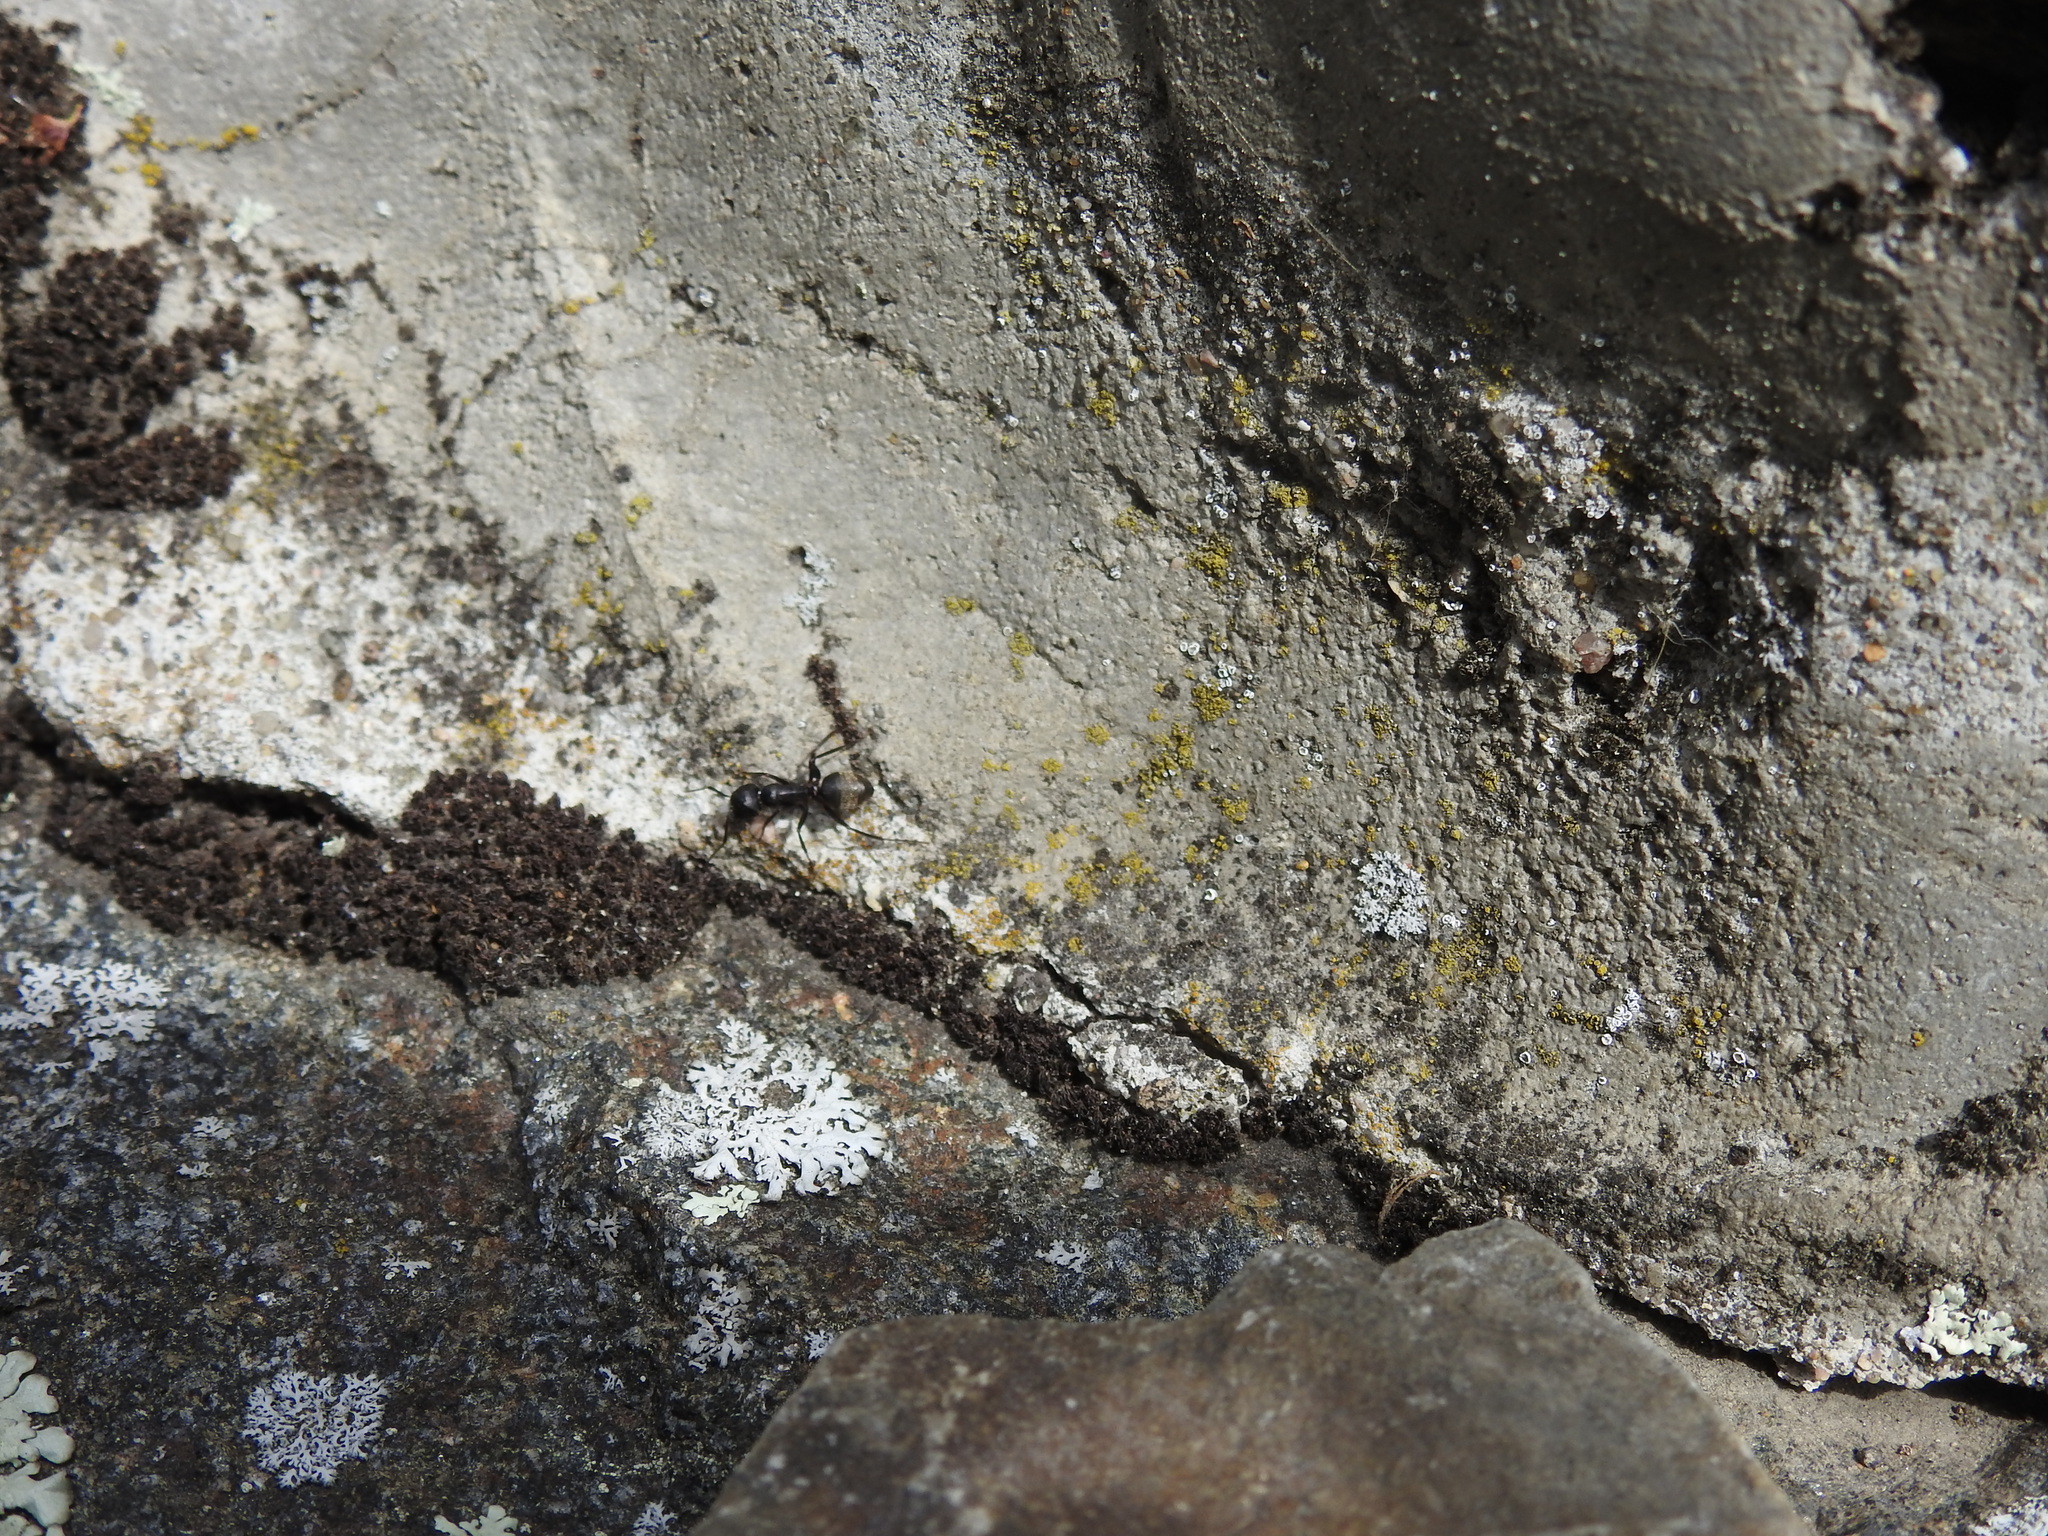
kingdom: Animalia
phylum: Arthropoda
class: Insecta
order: Hymenoptera
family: Formicidae
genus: Camponotus
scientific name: Camponotus pennsylvanicus
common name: Black carpenter ant
